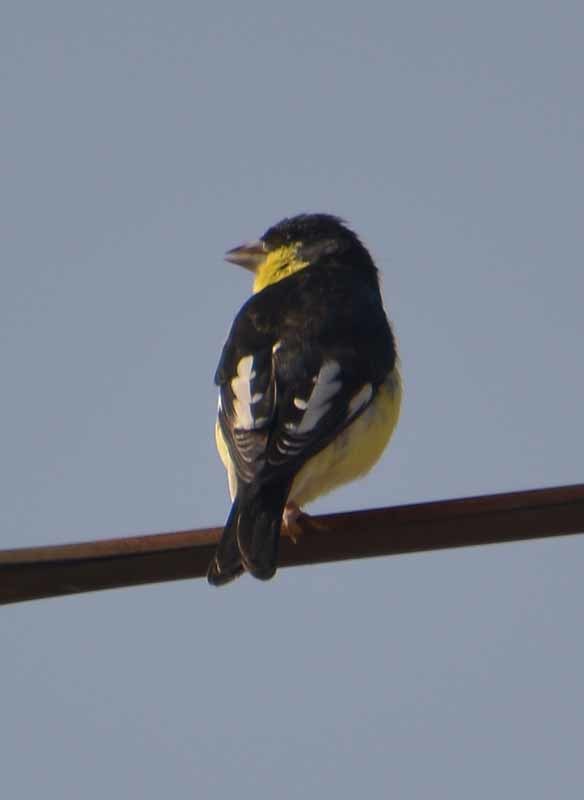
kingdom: Animalia
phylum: Chordata
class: Aves
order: Passeriformes
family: Fringillidae
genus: Spinus
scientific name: Spinus psaltria
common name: Lesser goldfinch
